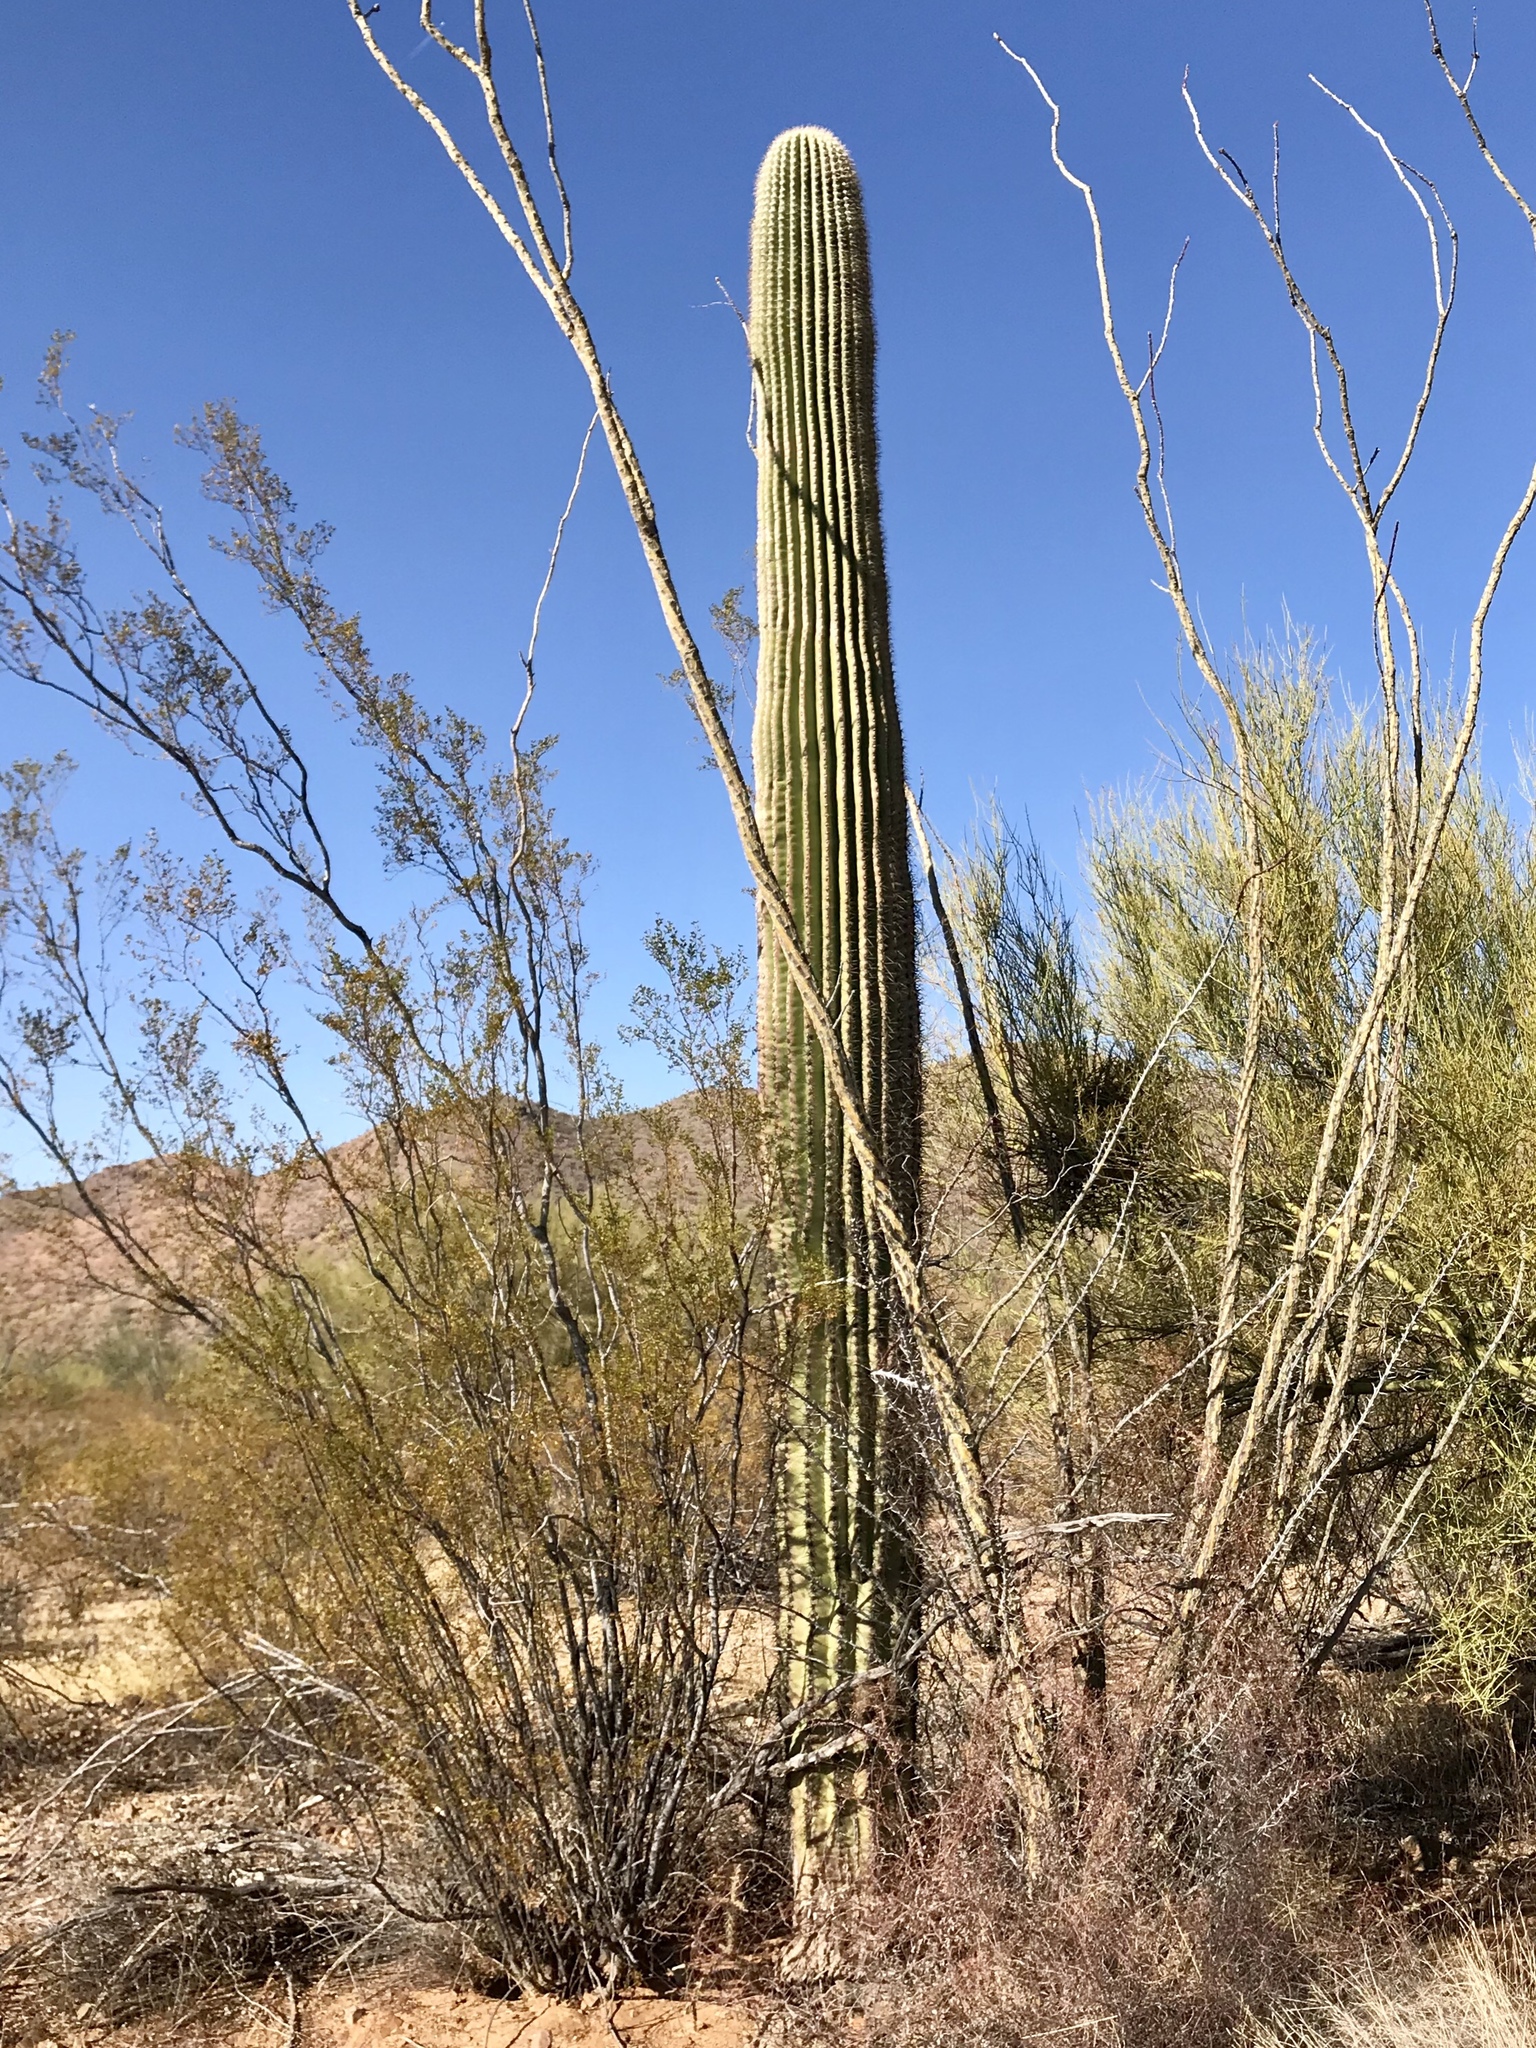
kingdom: Plantae
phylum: Tracheophyta
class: Magnoliopsida
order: Caryophyllales
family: Cactaceae
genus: Carnegiea
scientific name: Carnegiea gigantea
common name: Saguaro
